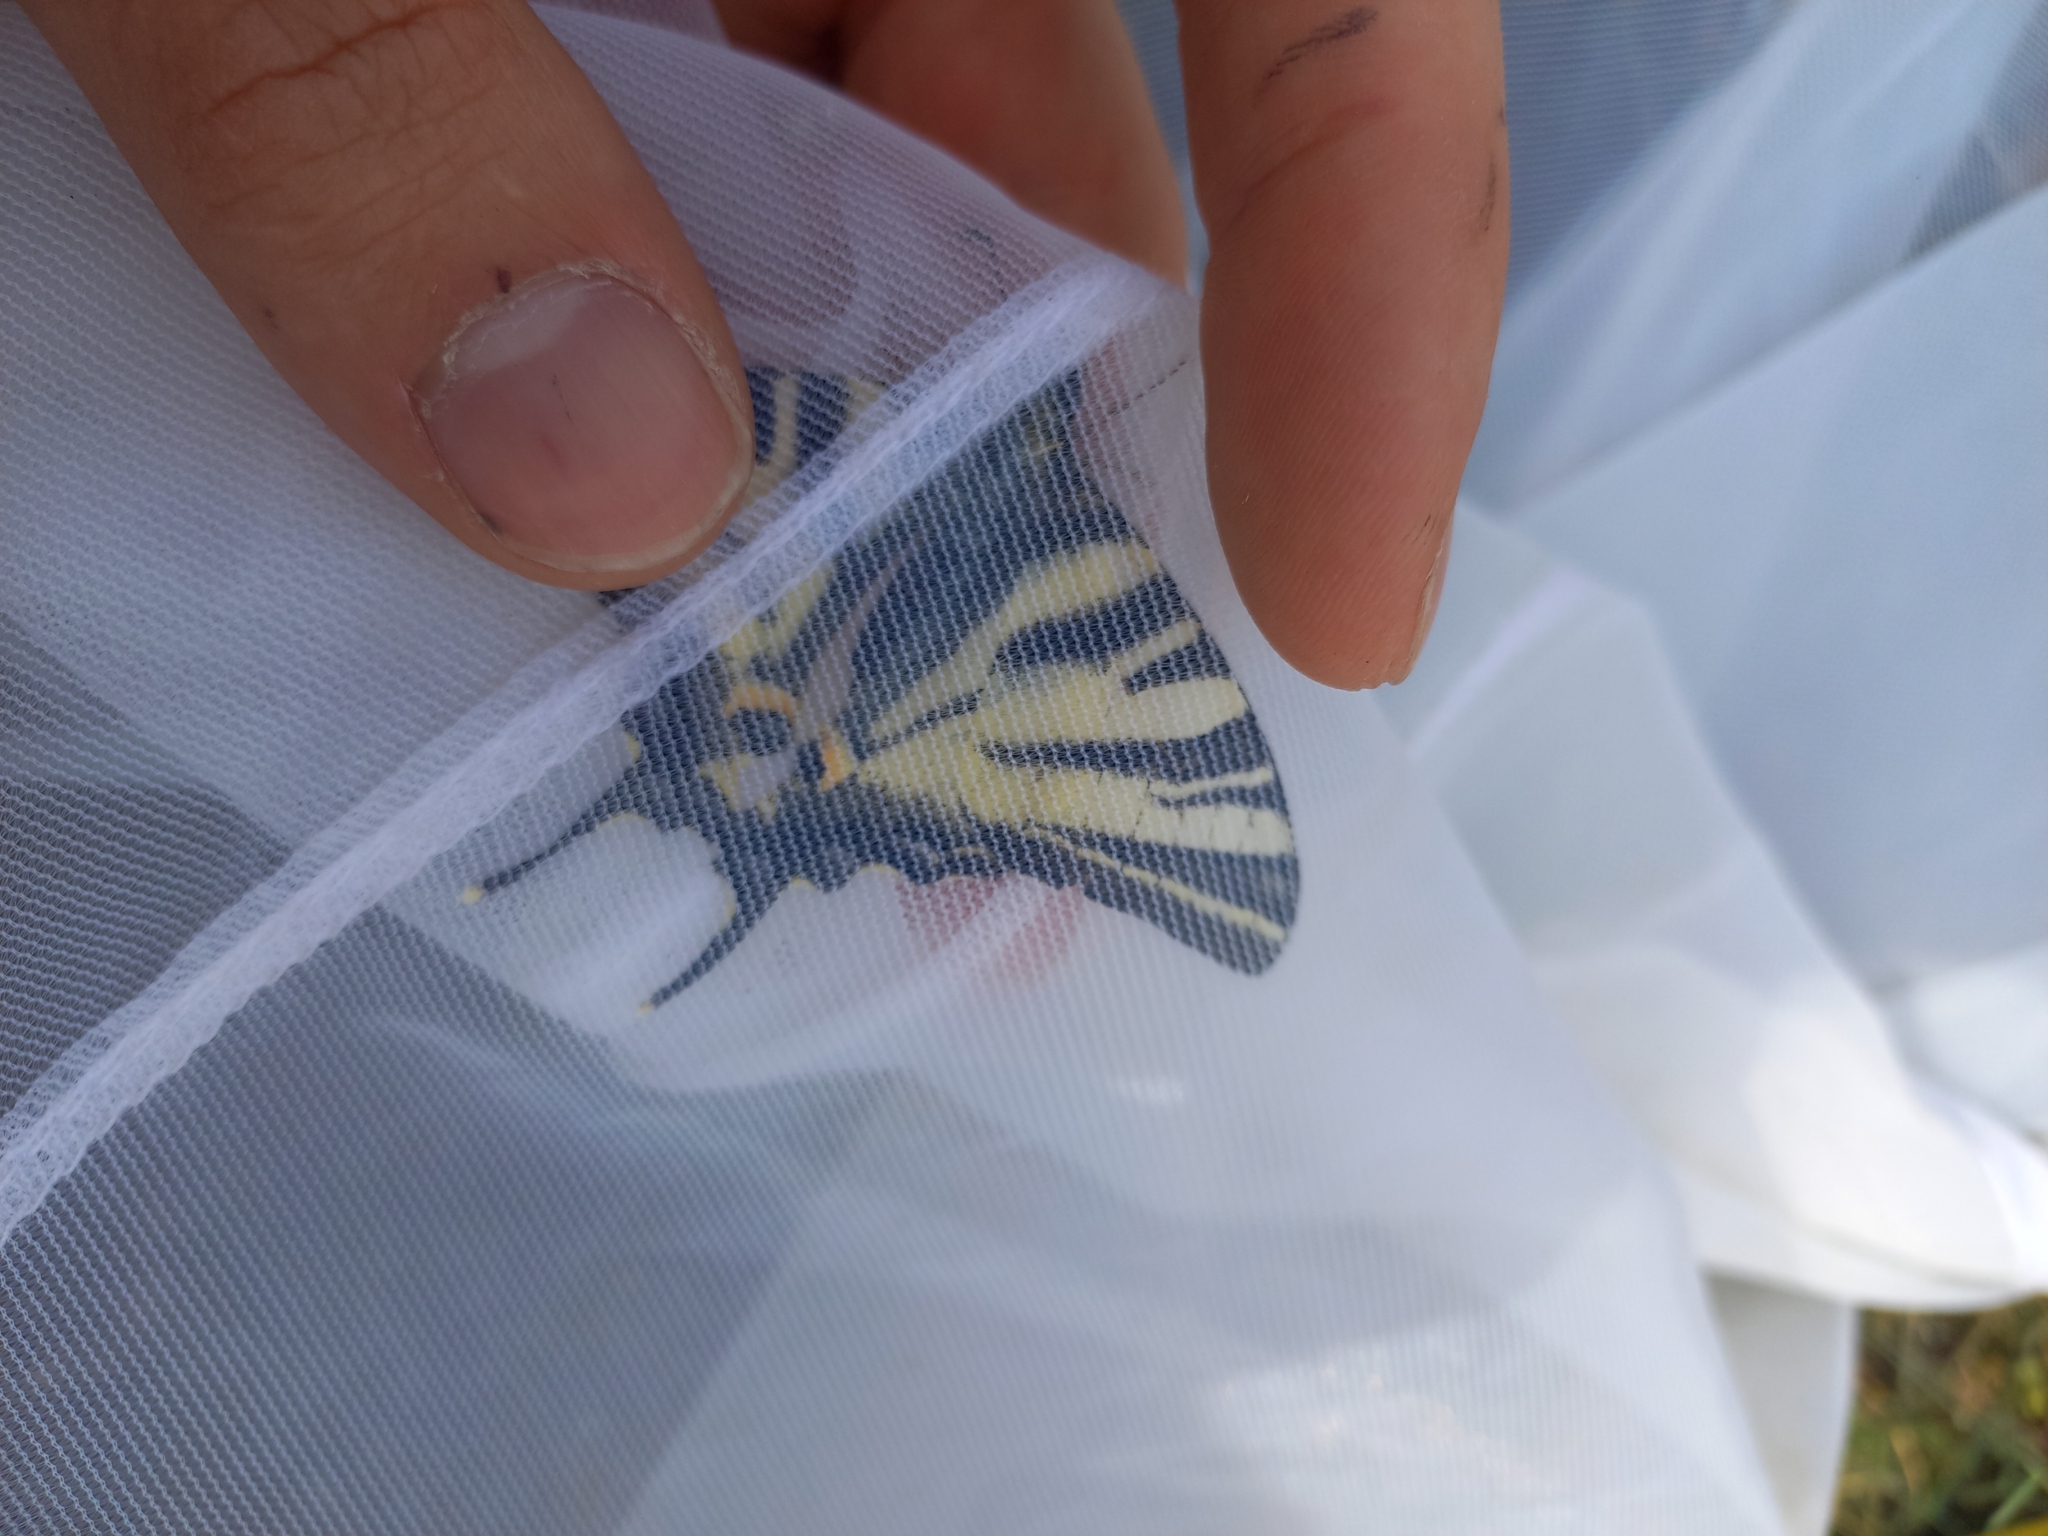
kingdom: Animalia
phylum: Arthropoda
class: Insecta
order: Lepidoptera
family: Papilionidae
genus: Iphiclides
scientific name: Iphiclides podalirius
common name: Scarce swallowtail
